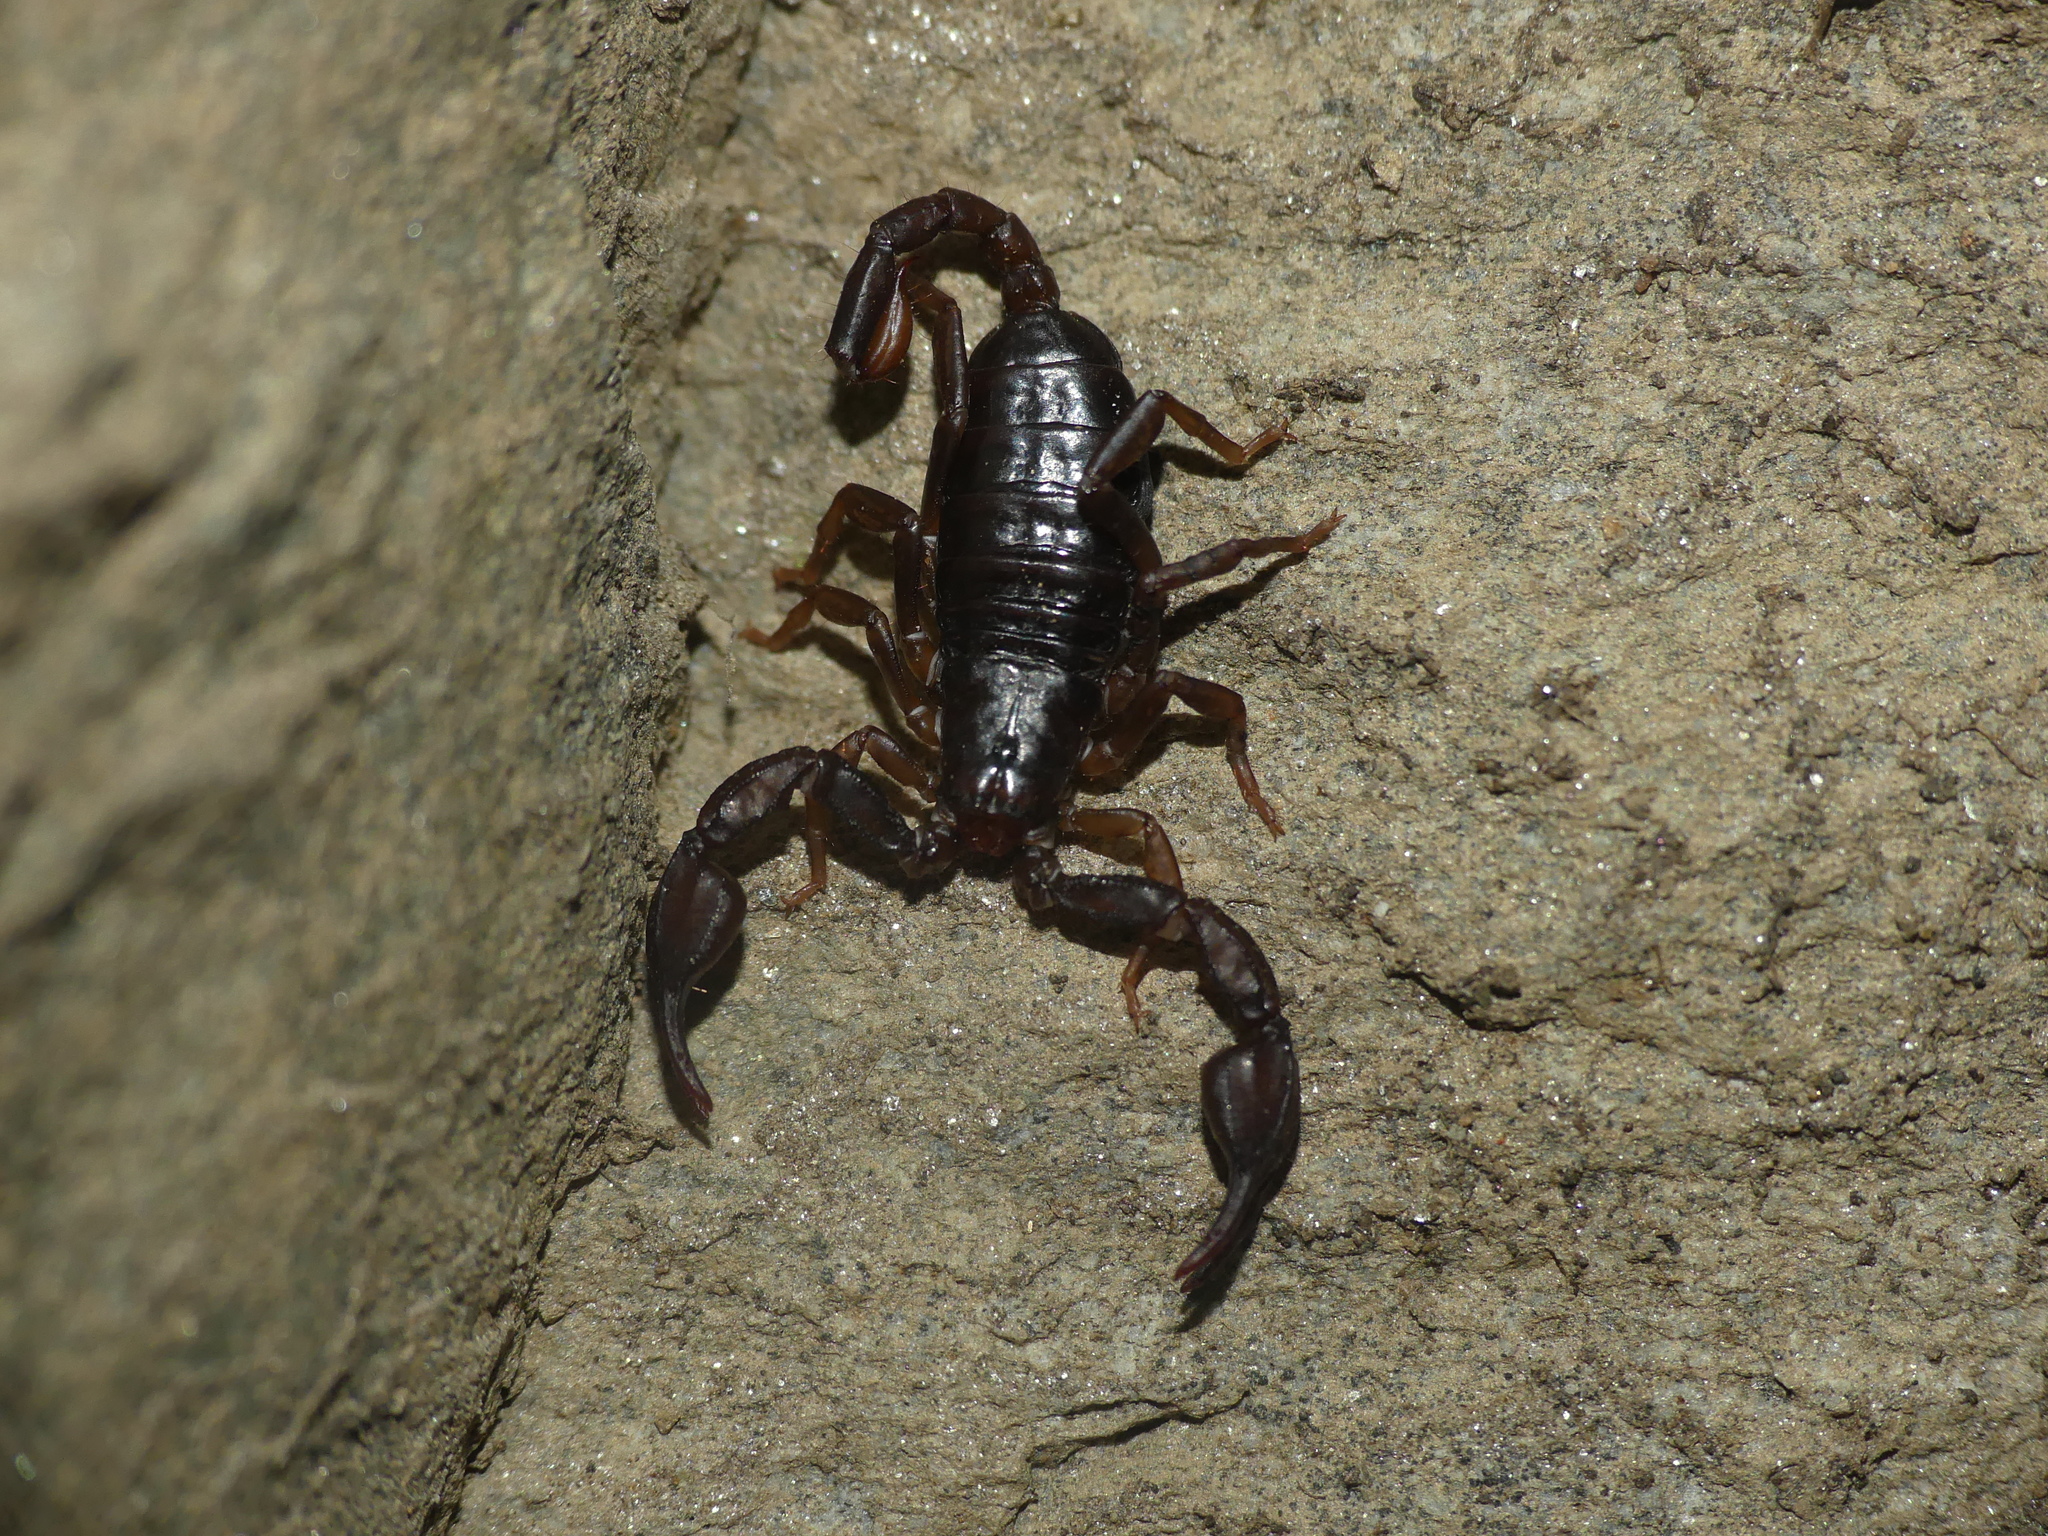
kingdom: Animalia
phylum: Arthropoda
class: Arachnida
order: Scorpiones
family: Euscorpiidae
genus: Alpiscorpius
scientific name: Alpiscorpius alpha
